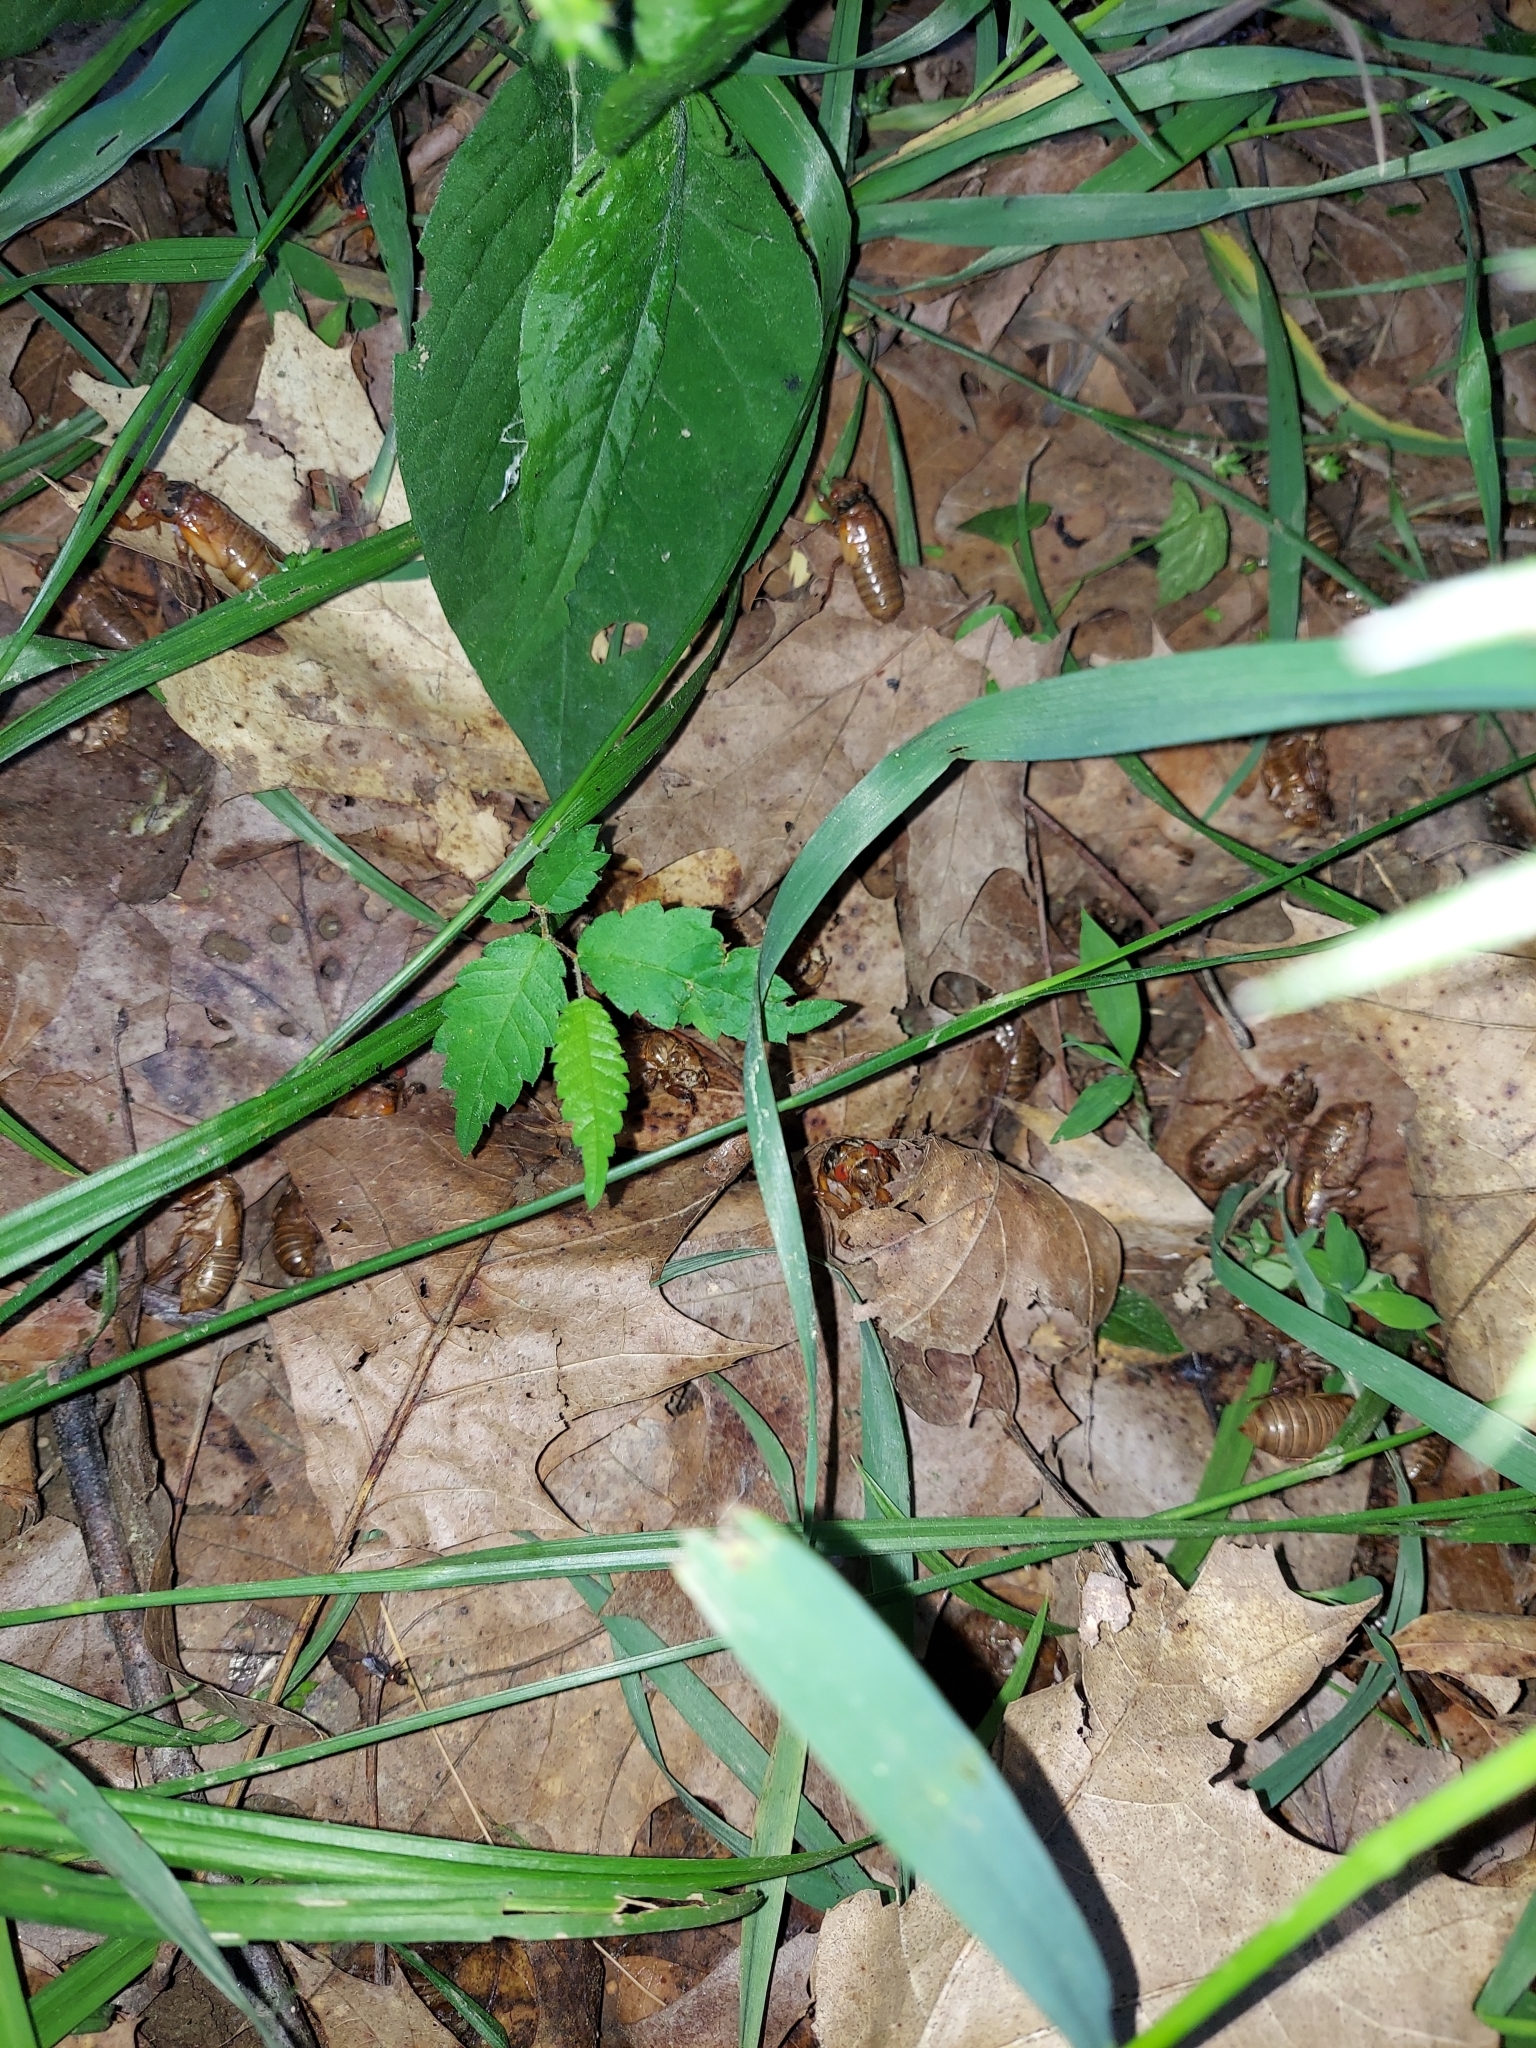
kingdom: Animalia
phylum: Arthropoda
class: Insecta
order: Hemiptera
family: Cicadidae
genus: Magicicada
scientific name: Magicicada
